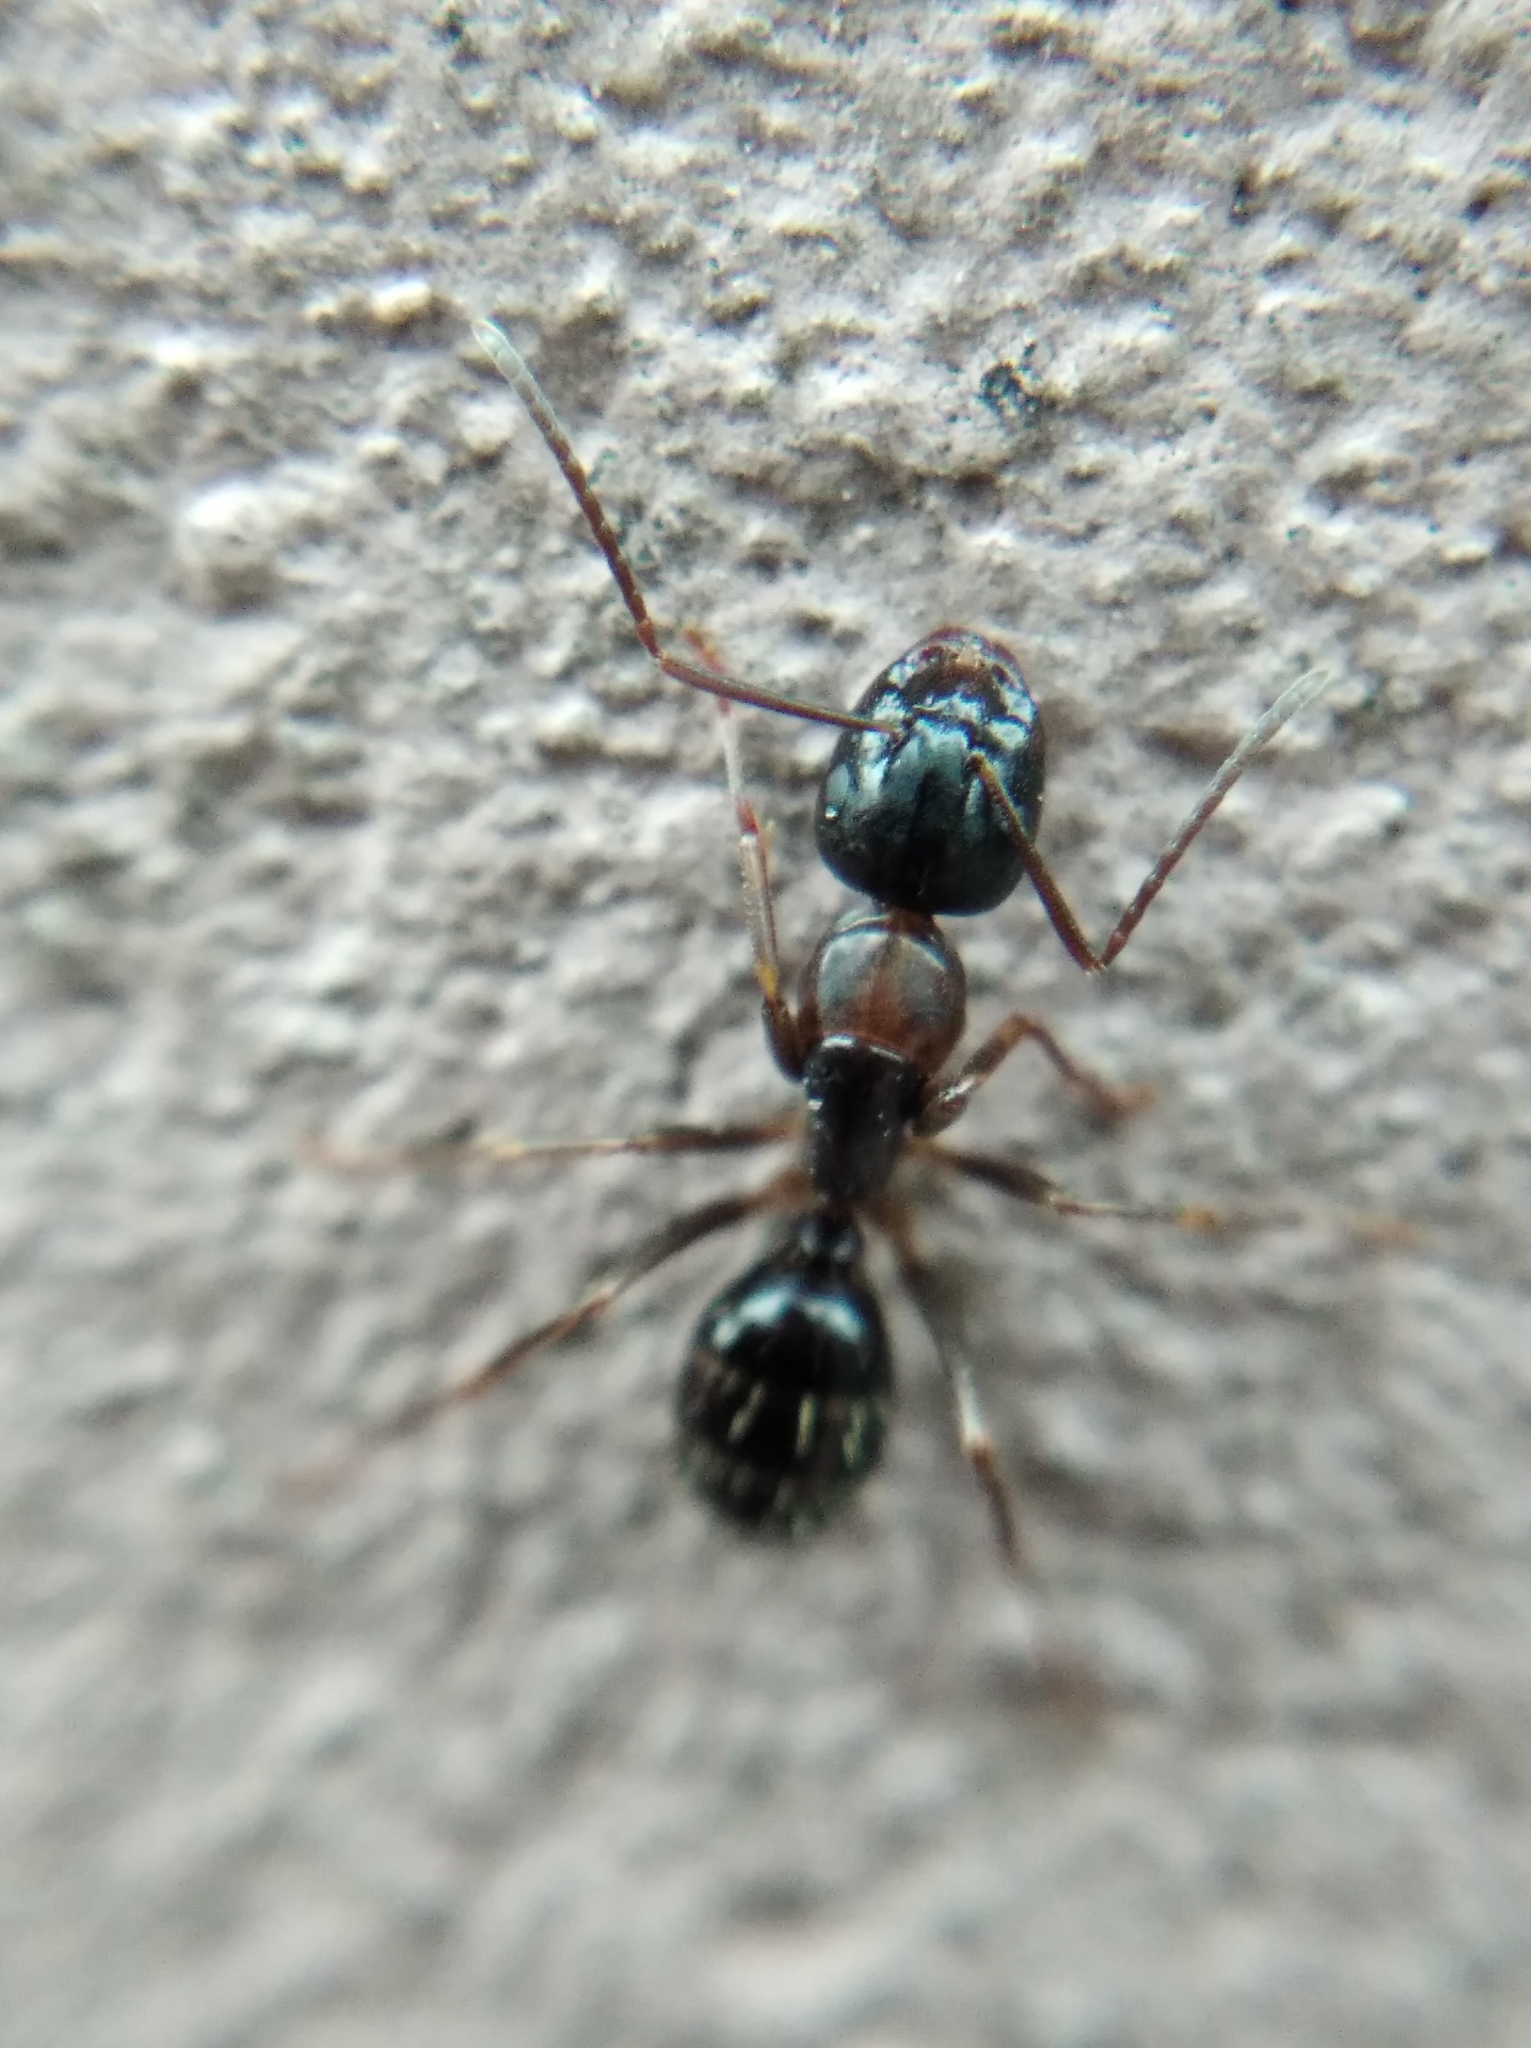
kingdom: Animalia
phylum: Arthropoda
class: Insecta
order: Hymenoptera
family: Formicidae
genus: Camponotus
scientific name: Camponotus fallax
